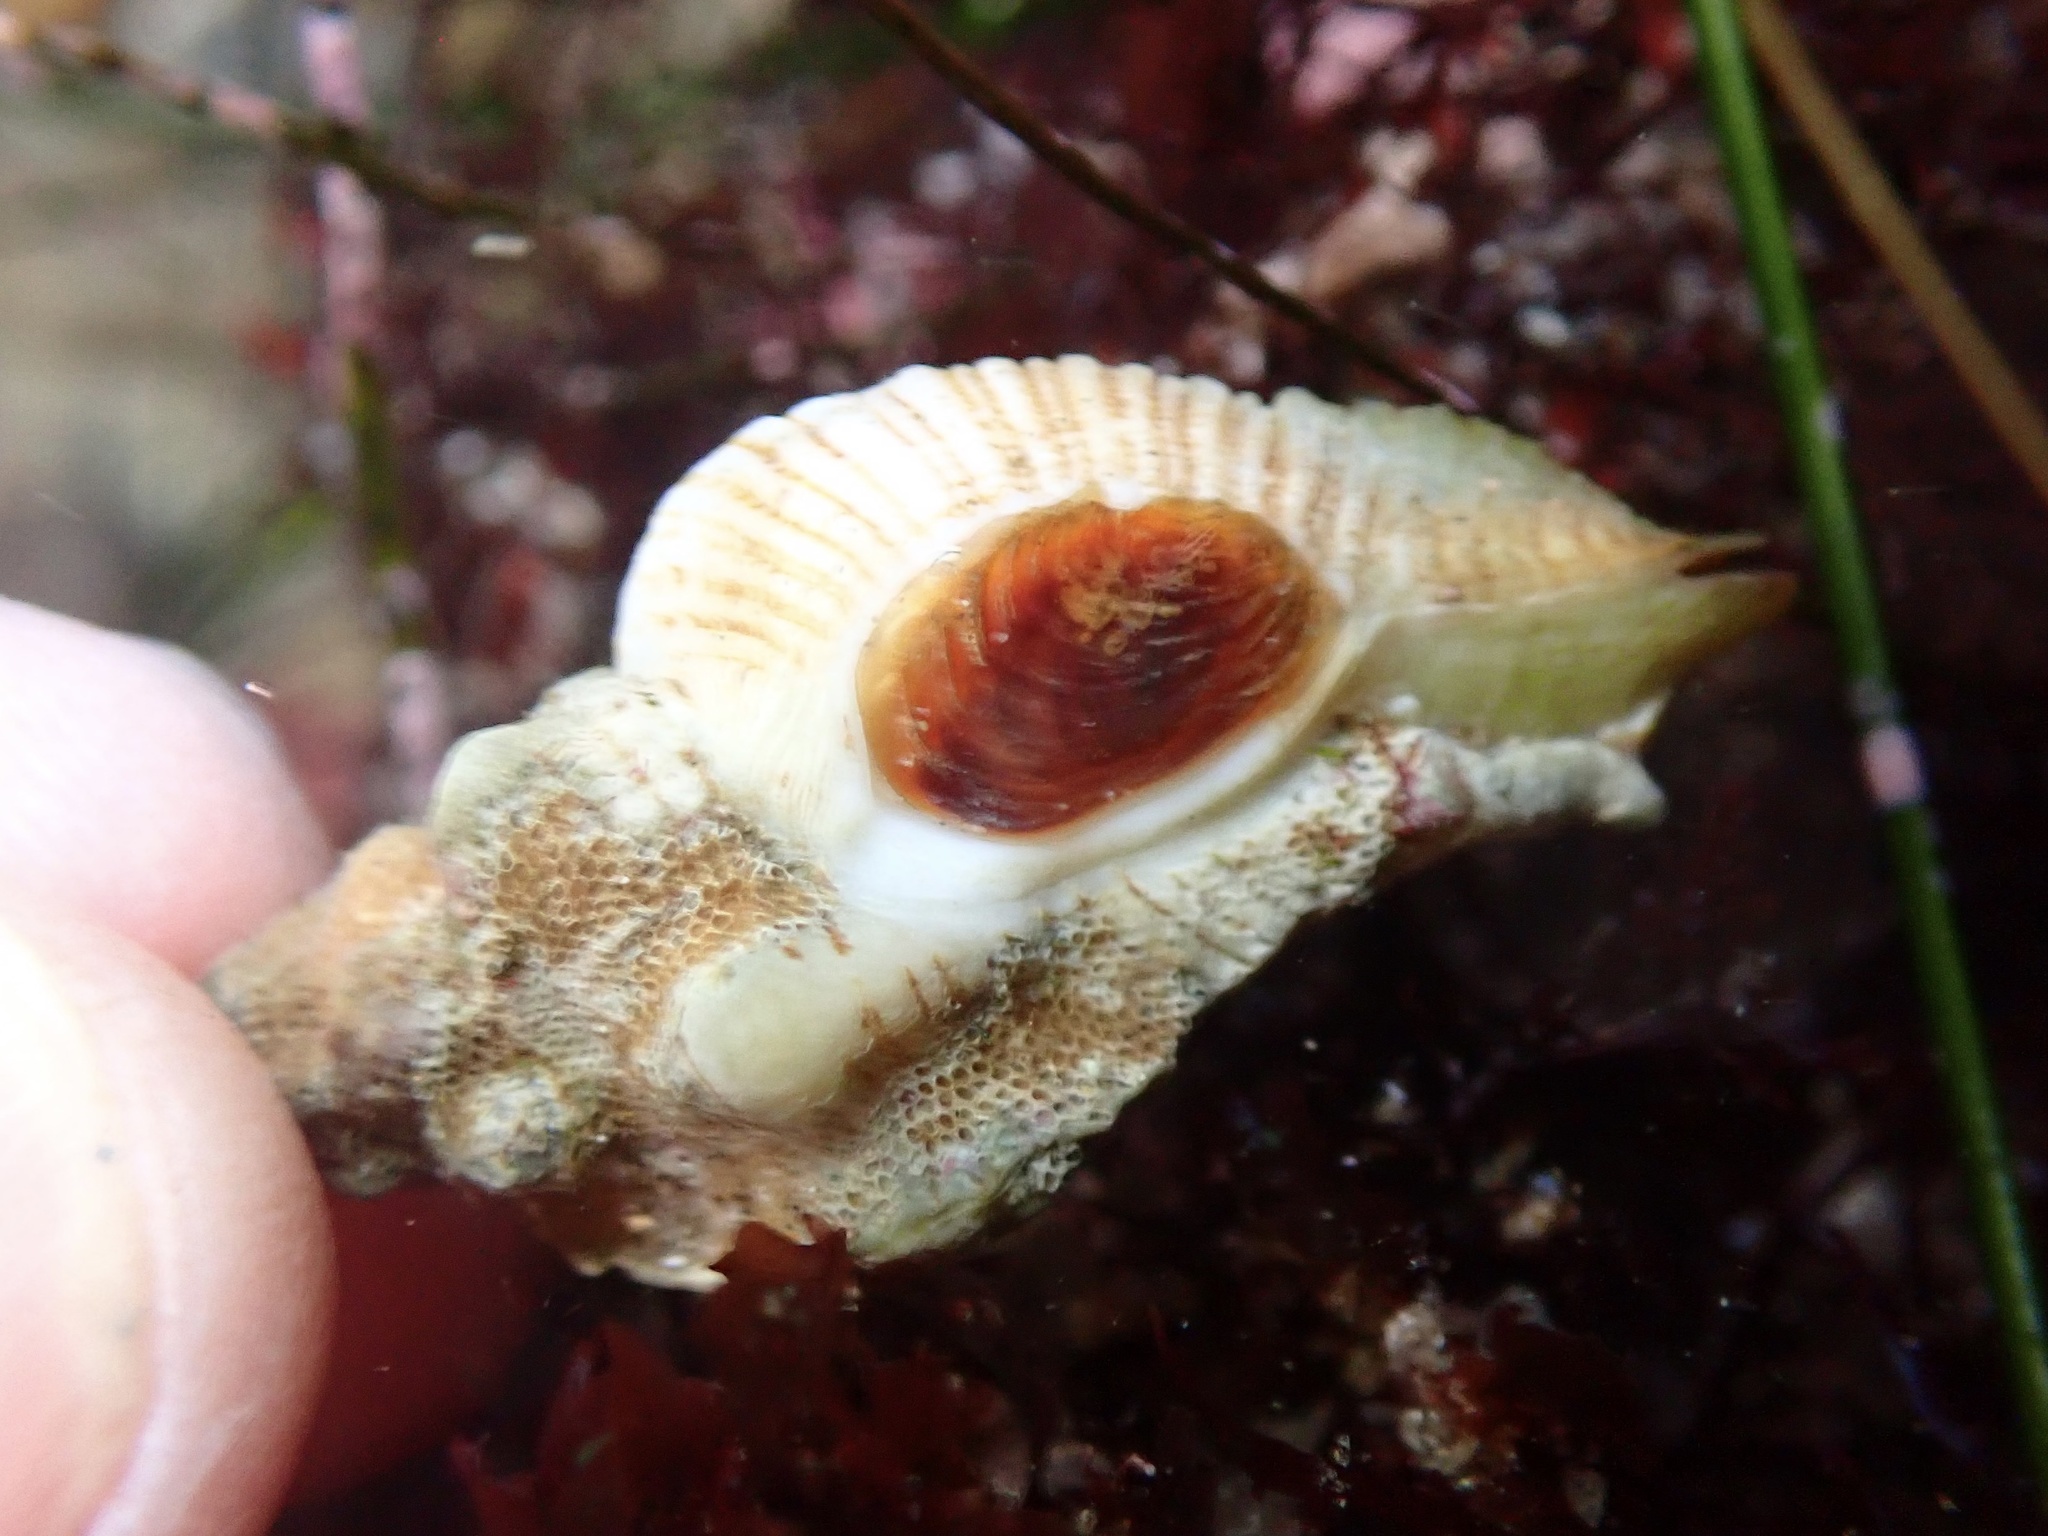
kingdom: Animalia
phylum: Mollusca
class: Gastropoda
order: Neogastropoda
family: Muricidae
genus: Pteropurpura
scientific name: Pteropurpura festiva
